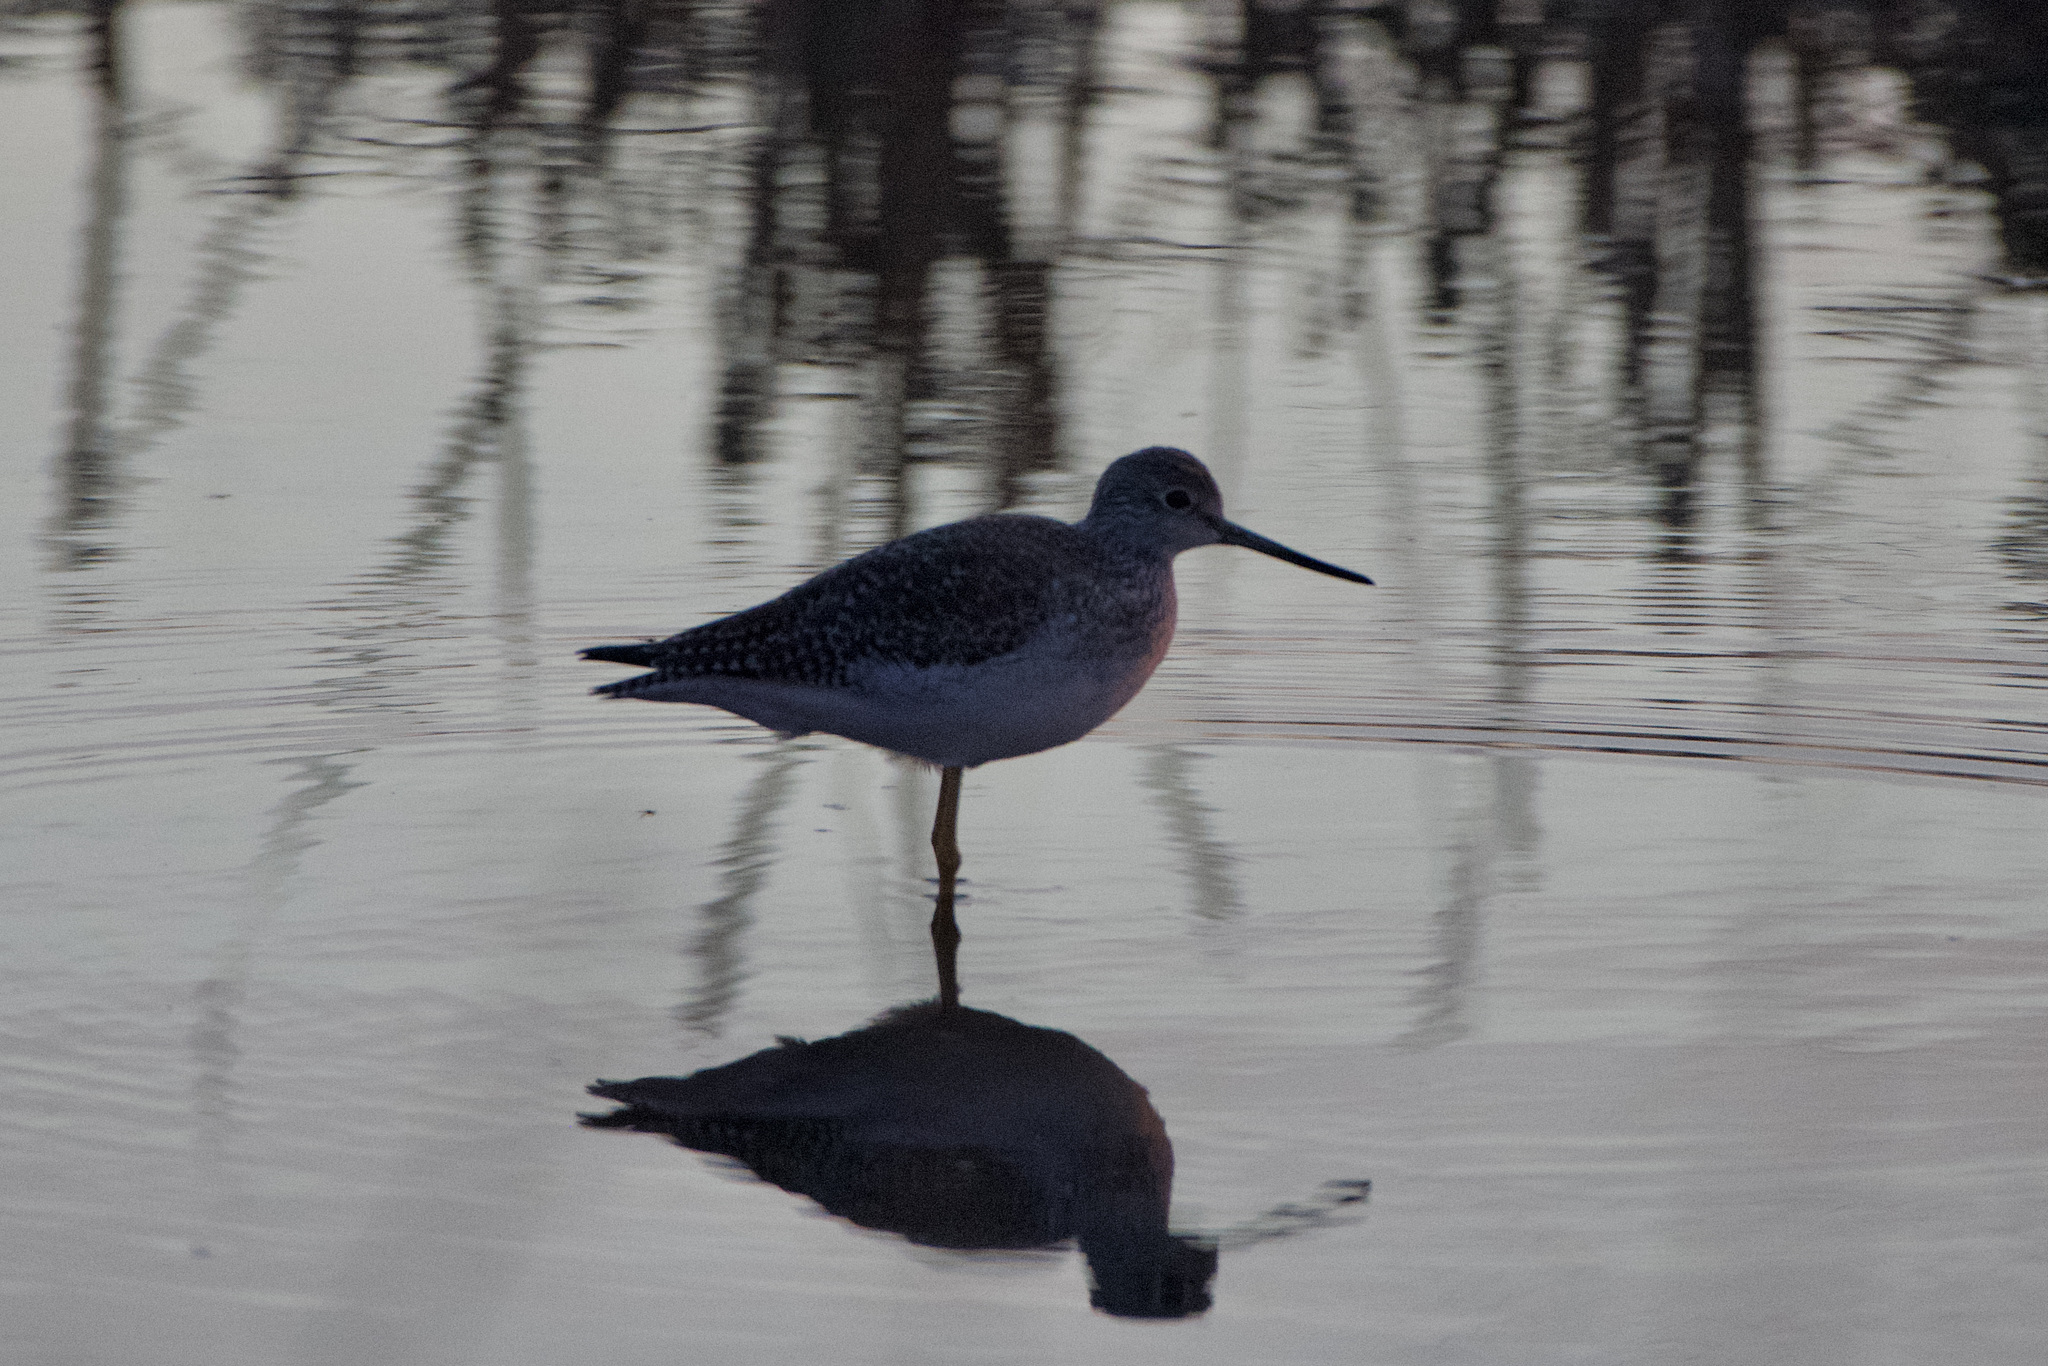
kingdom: Animalia
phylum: Chordata
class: Aves
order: Charadriiformes
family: Scolopacidae
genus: Tringa
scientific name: Tringa melanoleuca
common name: Greater yellowlegs
